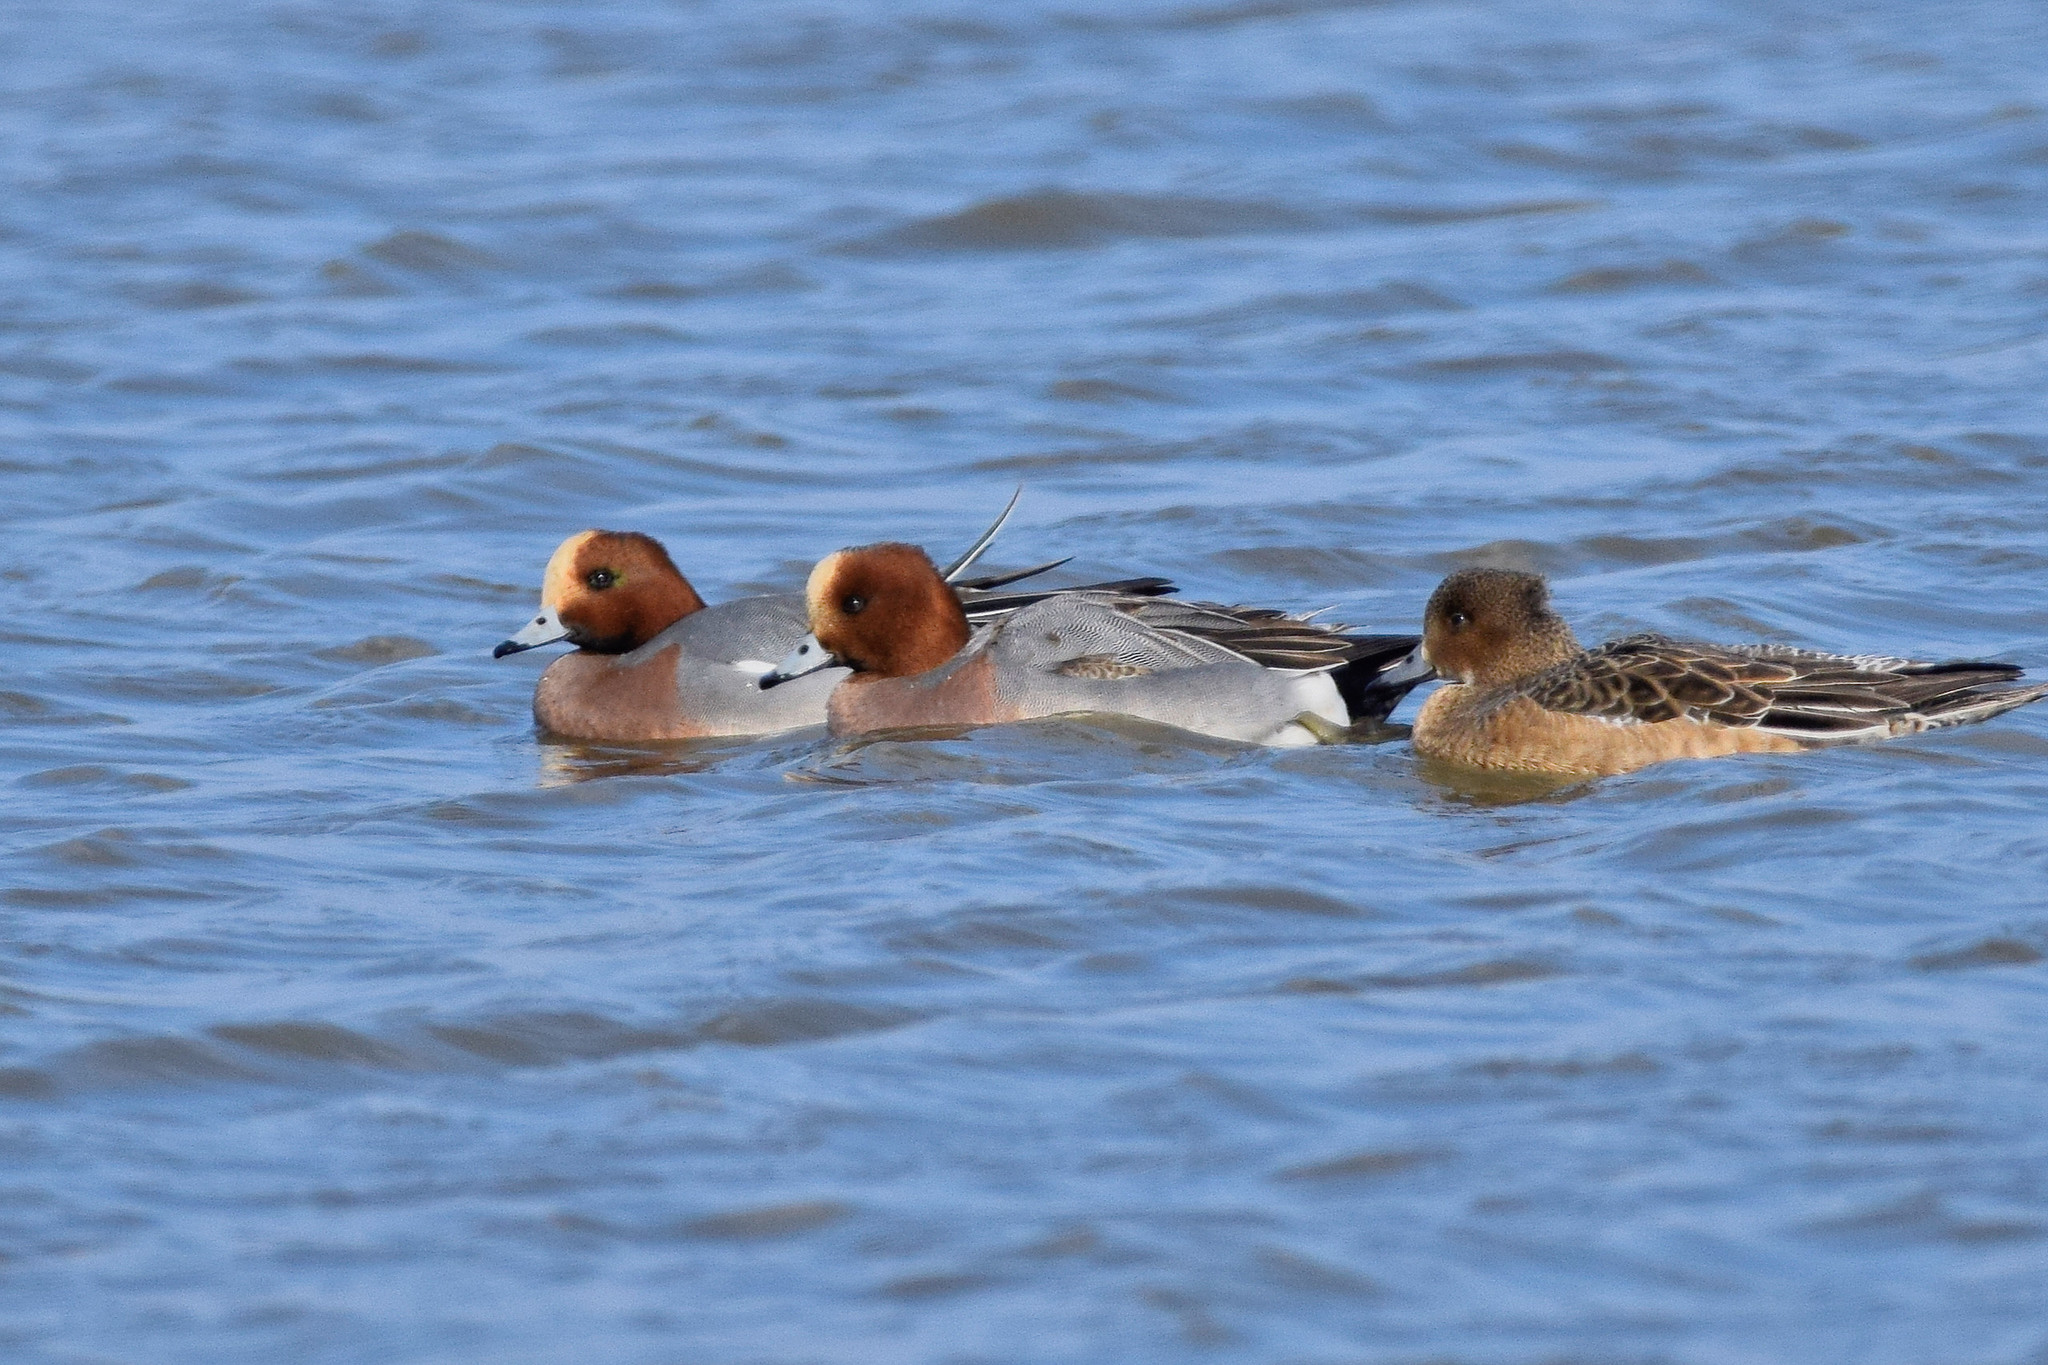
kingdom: Animalia
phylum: Chordata
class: Aves
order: Anseriformes
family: Anatidae
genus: Mareca
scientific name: Mareca penelope
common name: Eurasian wigeon
